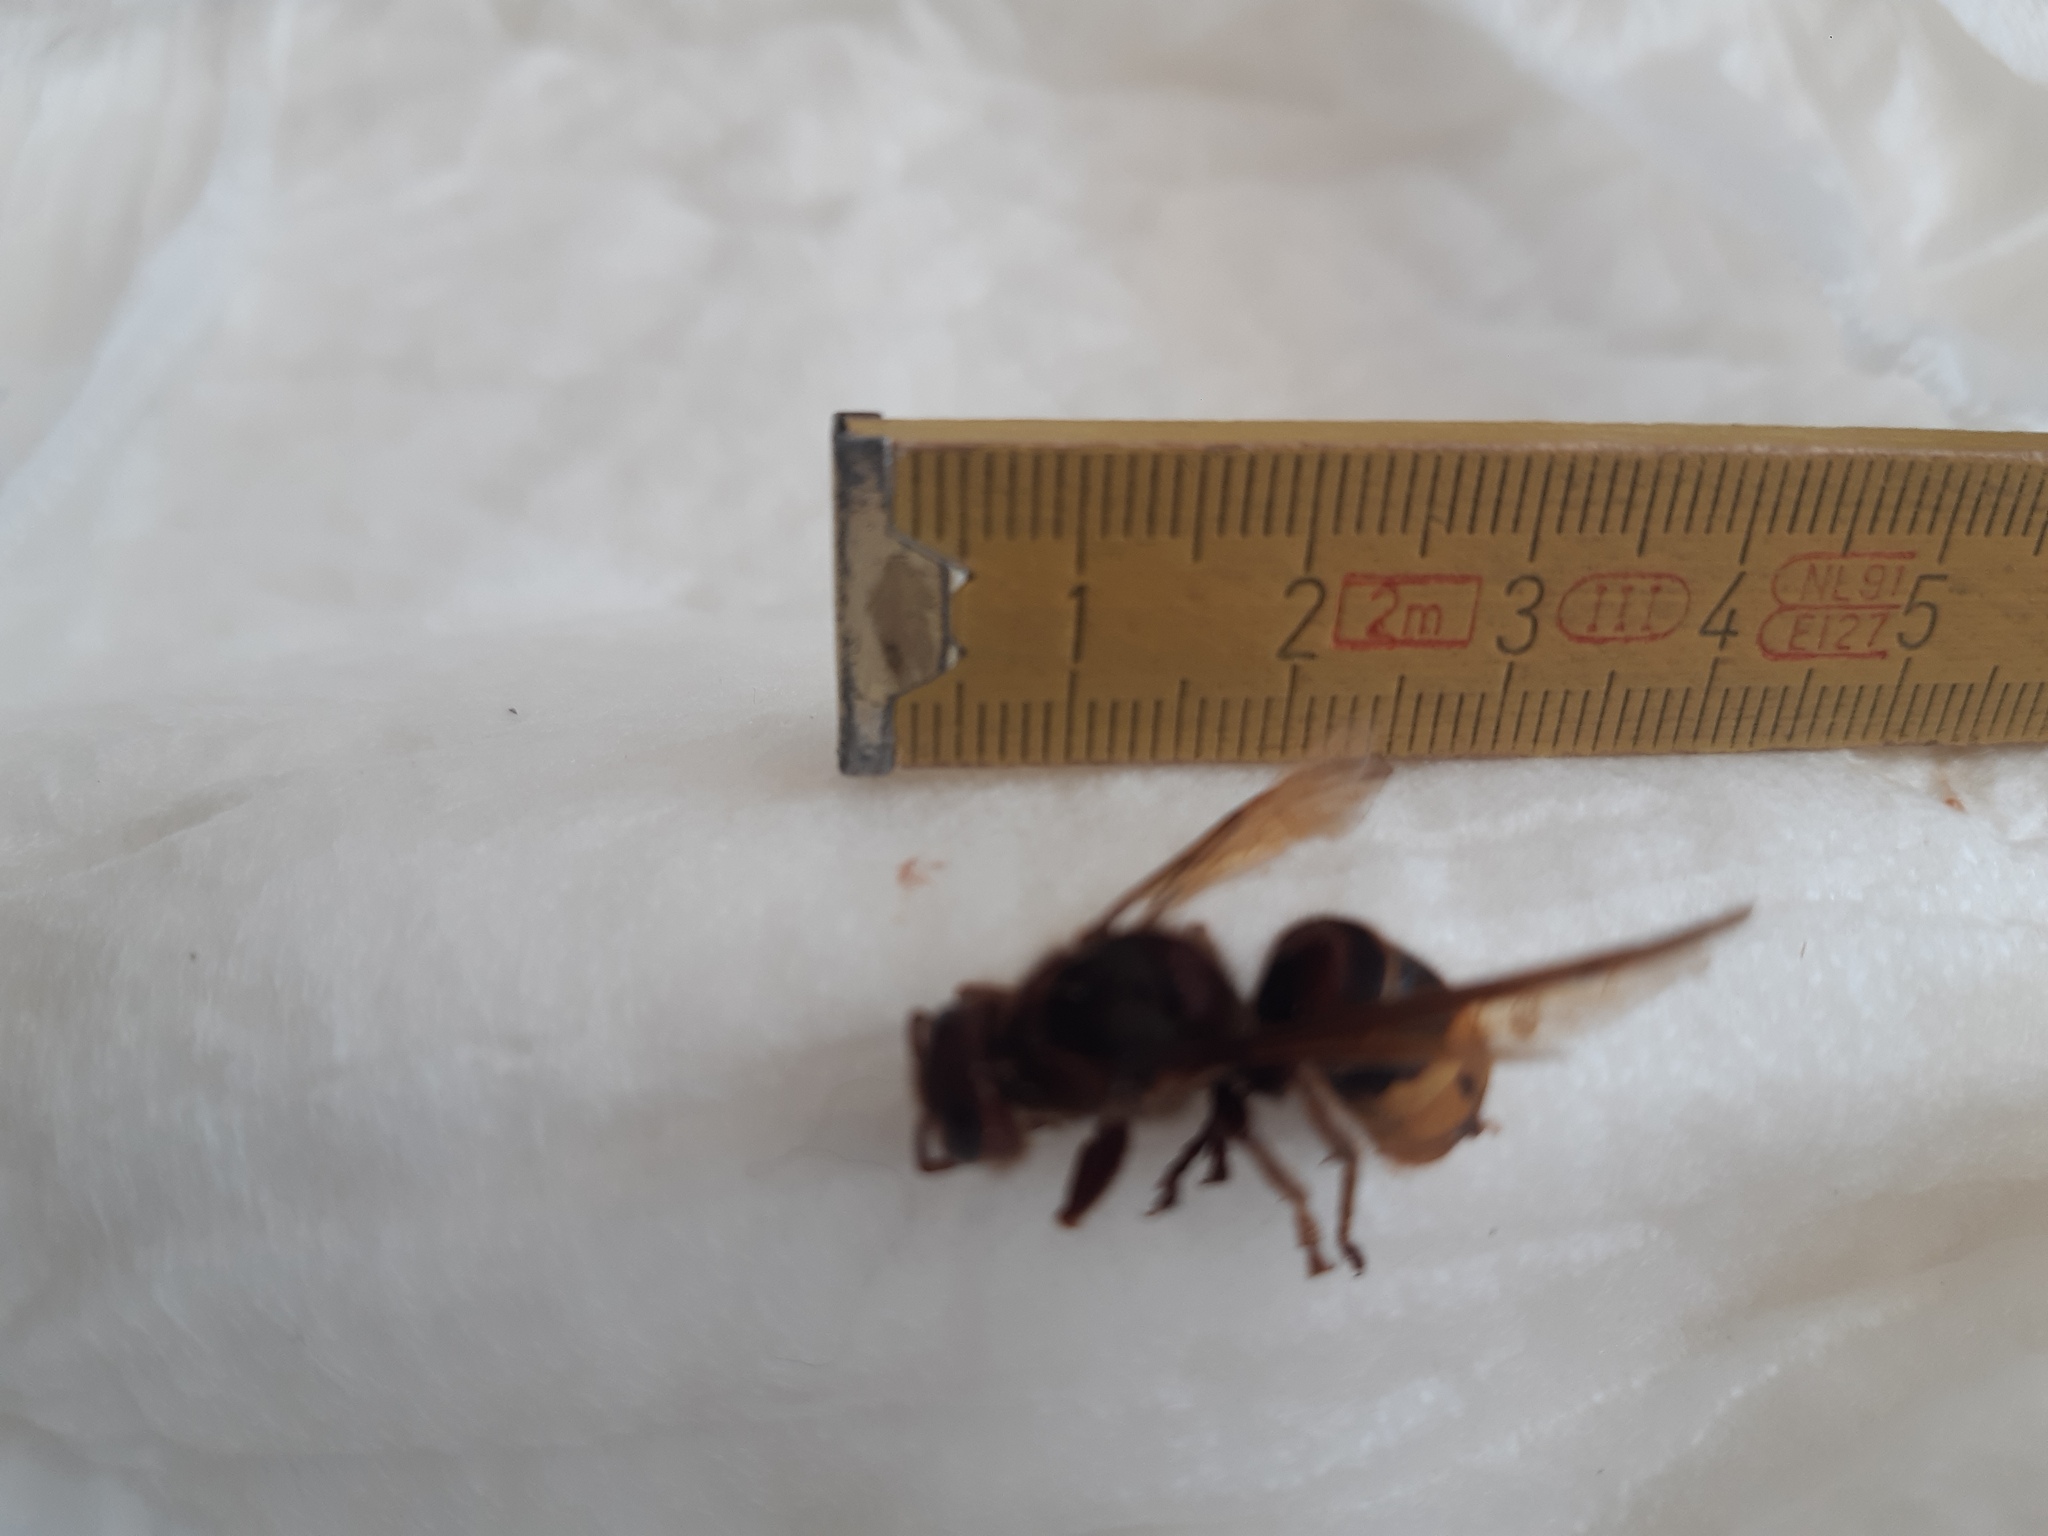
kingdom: Animalia
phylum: Arthropoda
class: Insecta
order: Hymenoptera
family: Vespidae
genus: Vespa
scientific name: Vespa crabro
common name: Hornet
